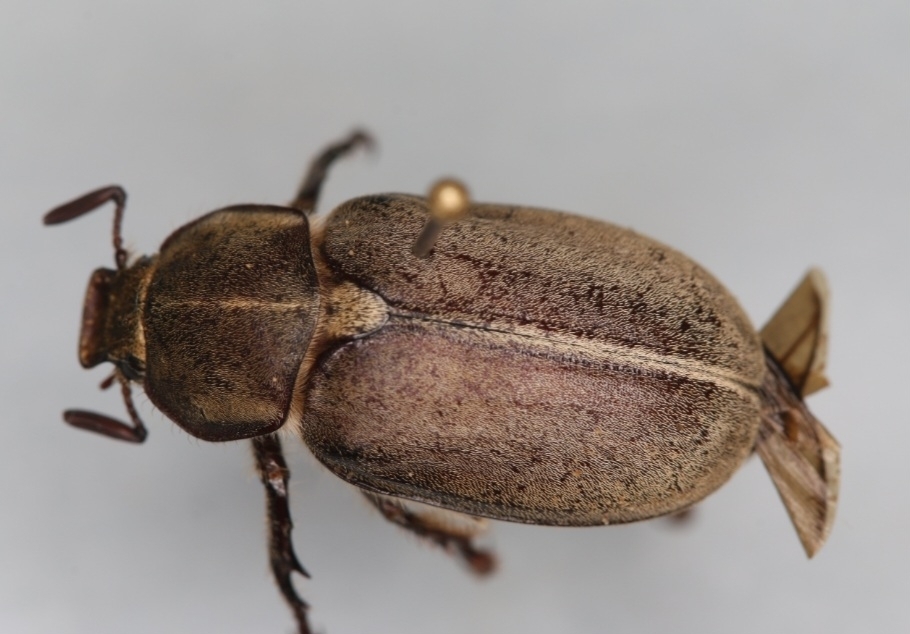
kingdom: Animalia
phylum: Arthropoda
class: Insecta
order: Coleoptera
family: Scarabaeidae
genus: Hypothyce
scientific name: Hypothyce rayi
